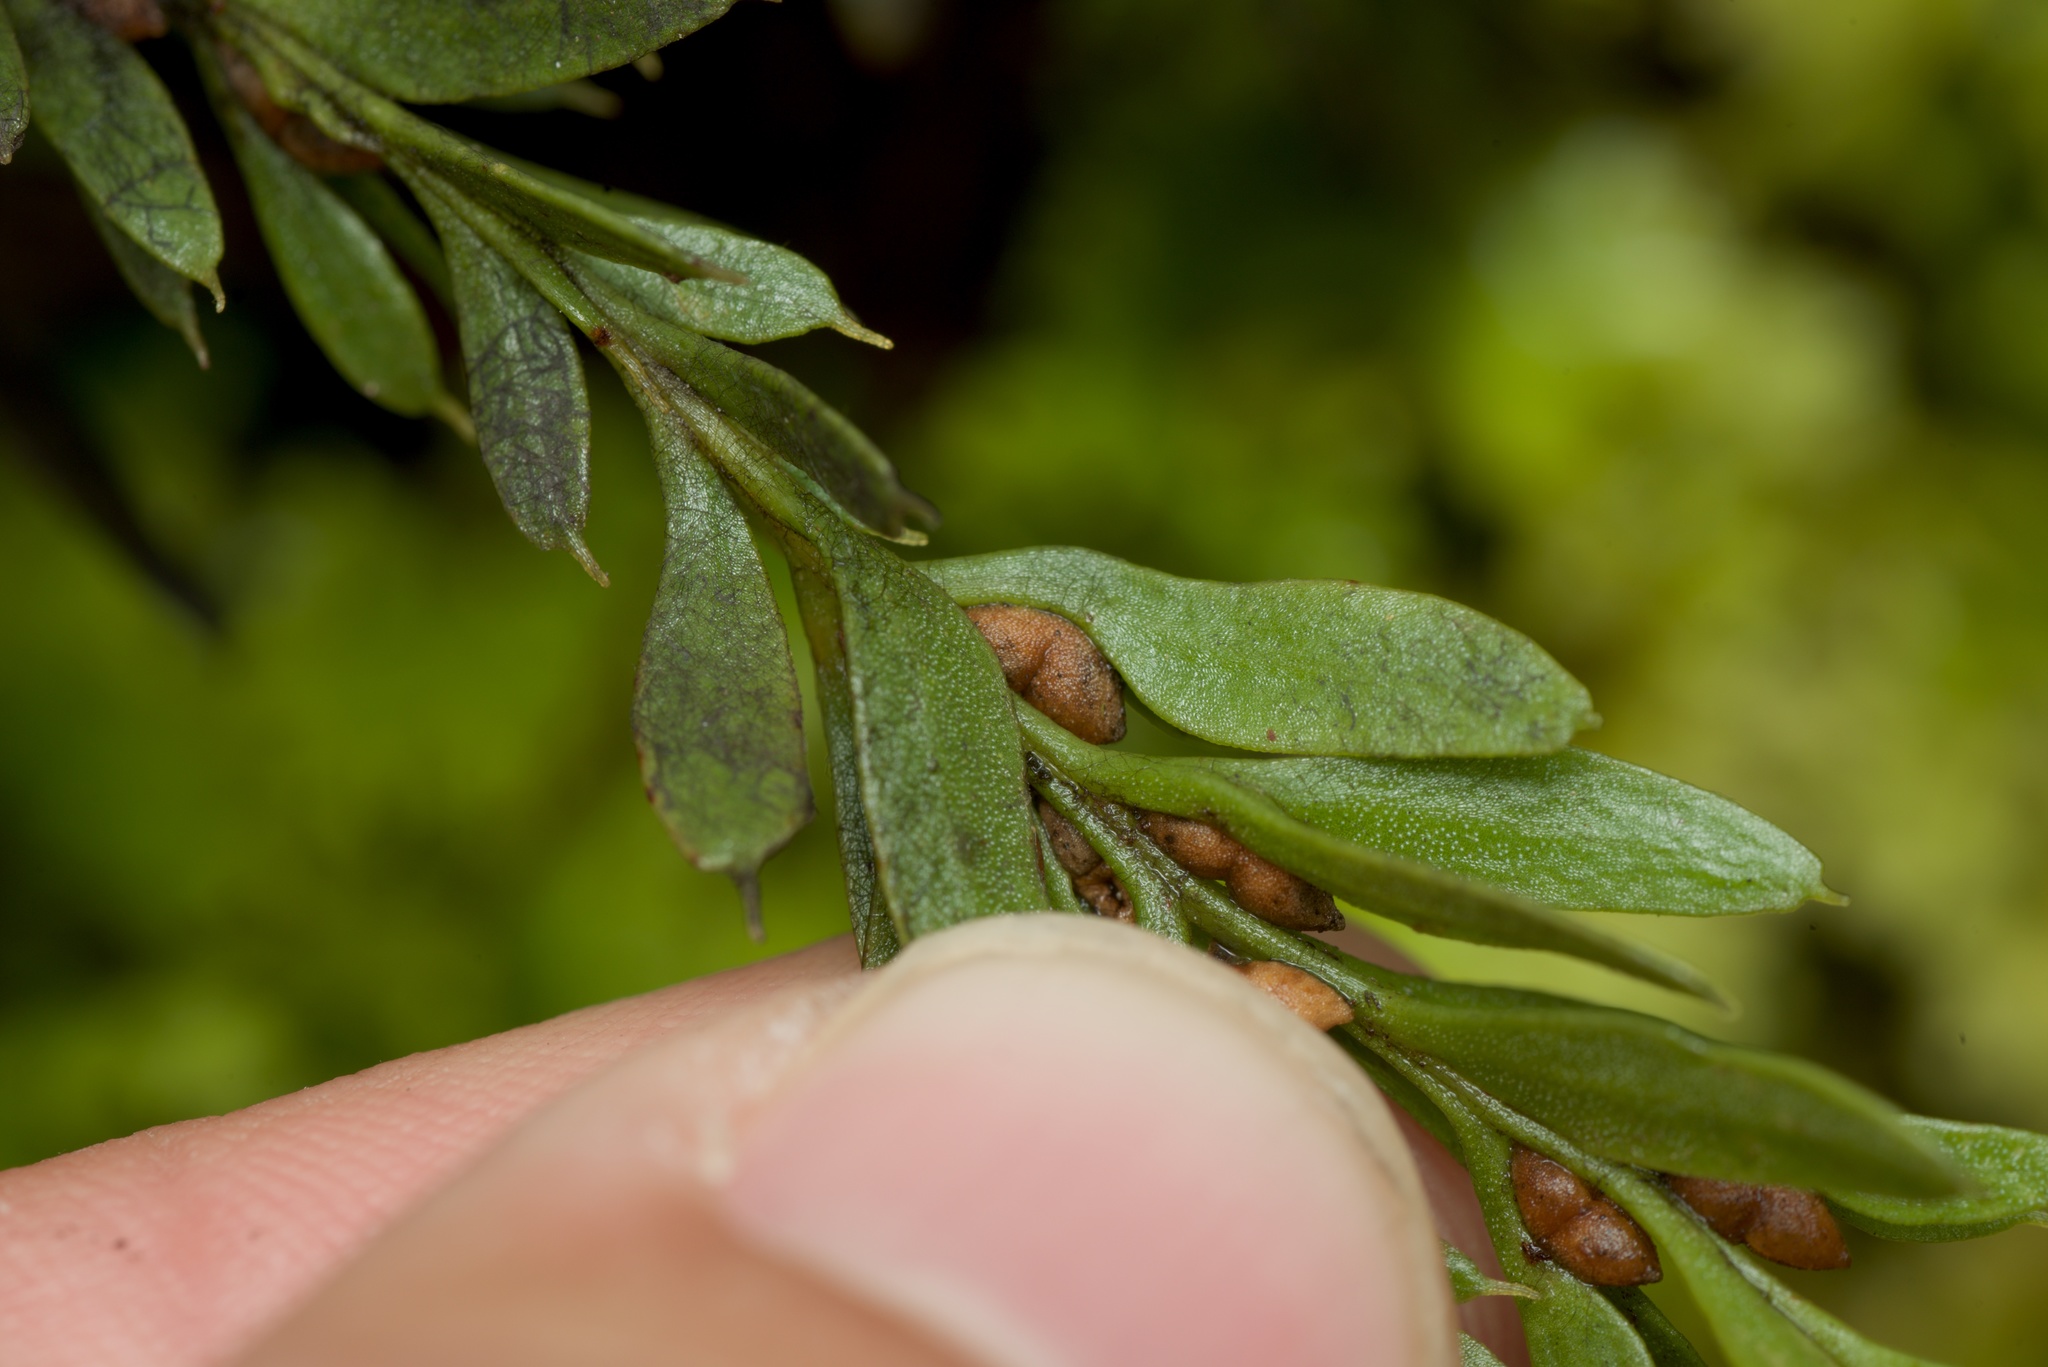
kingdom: Plantae
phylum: Tracheophyta
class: Polypodiopsida
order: Psilotales
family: Psilotaceae
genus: Tmesipteris
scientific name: Tmesipteris tannensis
